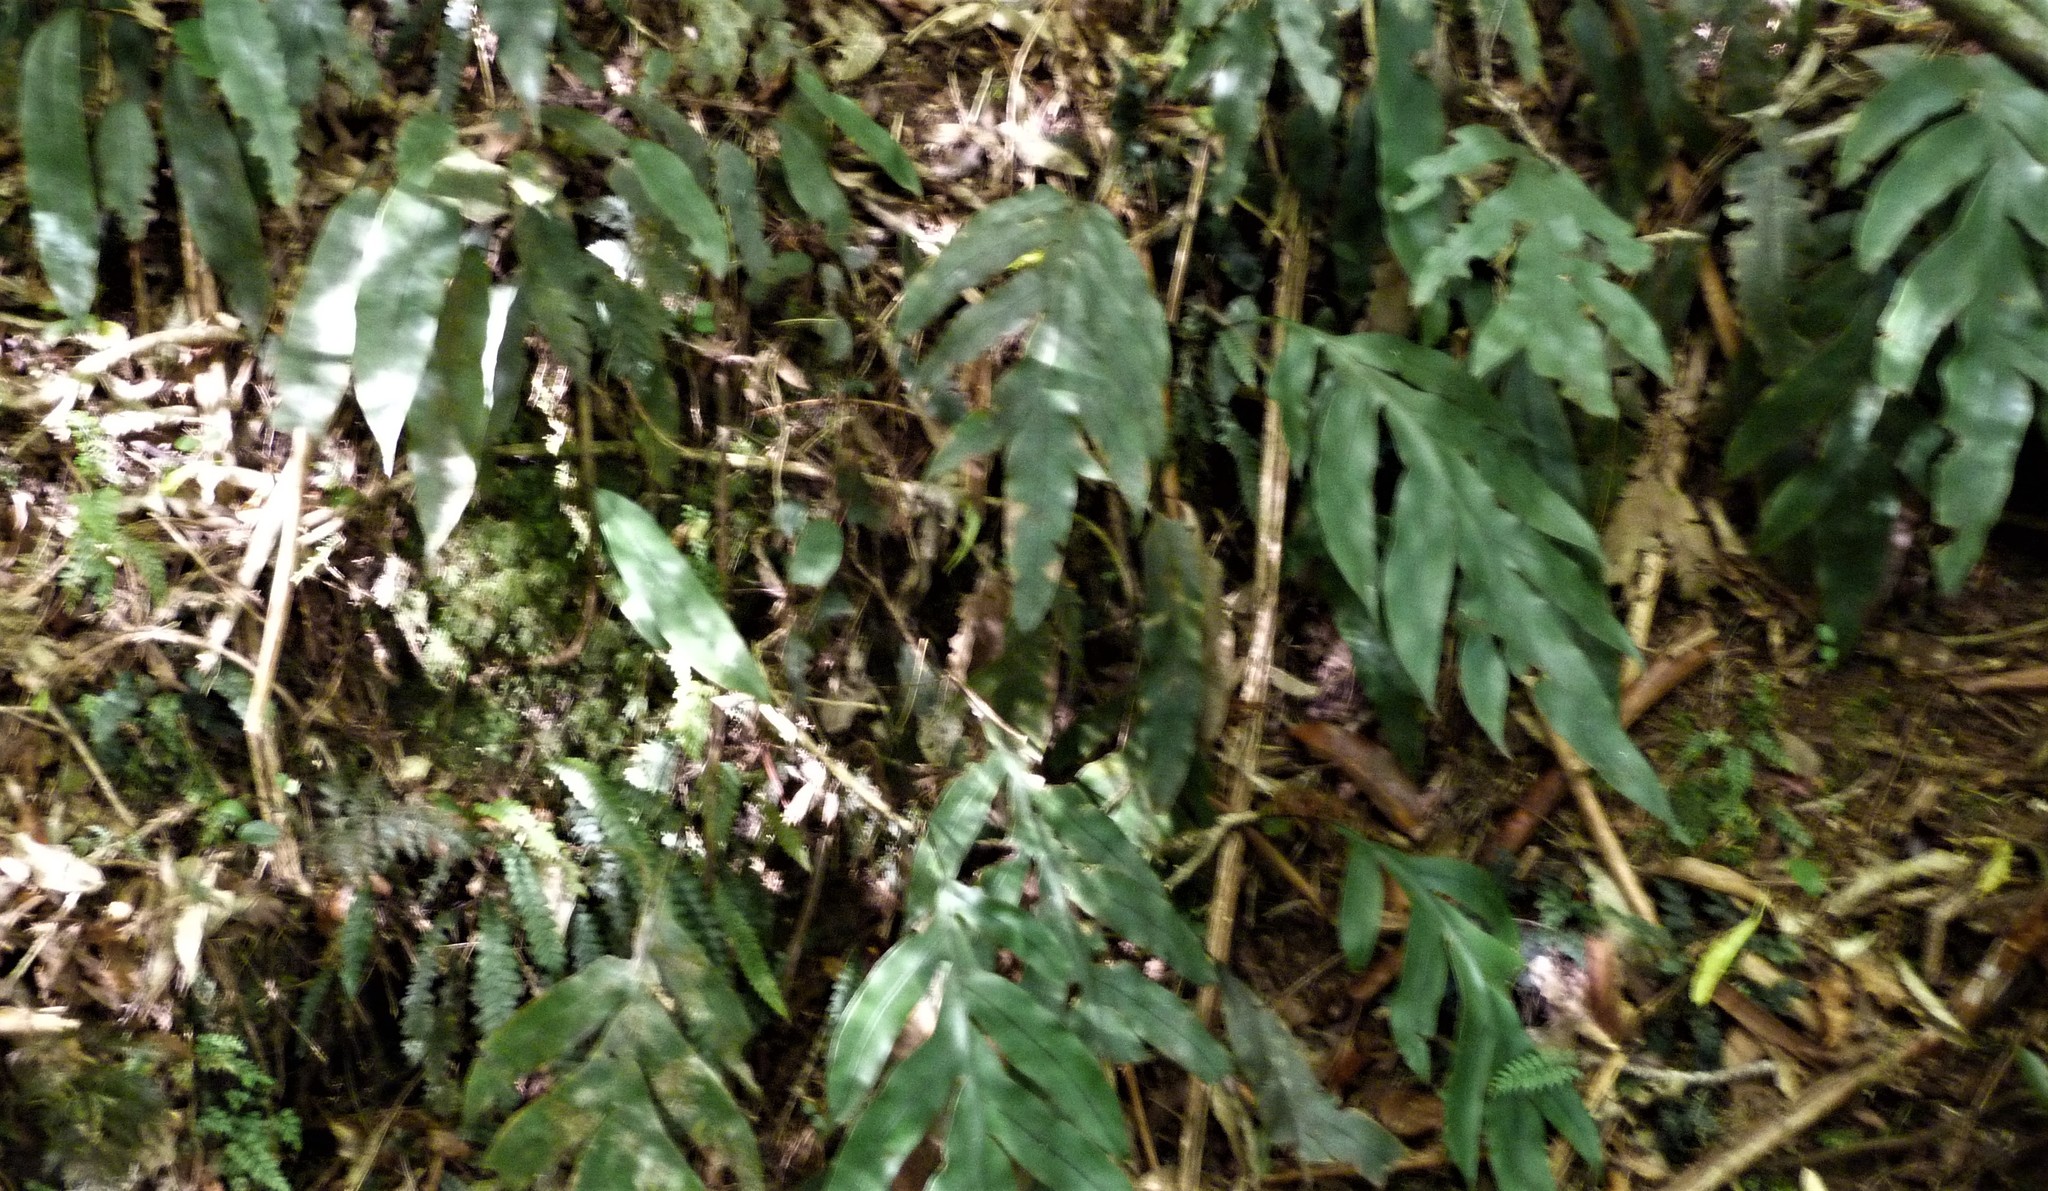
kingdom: Plantae
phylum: Tracheophyta
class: Polypodiopsida
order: Polypodiales
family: Blechnaceae
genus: Austroblechnum
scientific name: Austroblechnum colensoi
